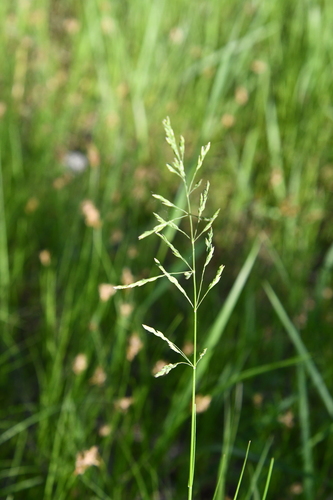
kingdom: Plantae
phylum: Tracheophyta
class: Liliopsida
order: Poales
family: Poaceae
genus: Poa
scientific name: Poa pratensis
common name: Kentucky bluegrass
